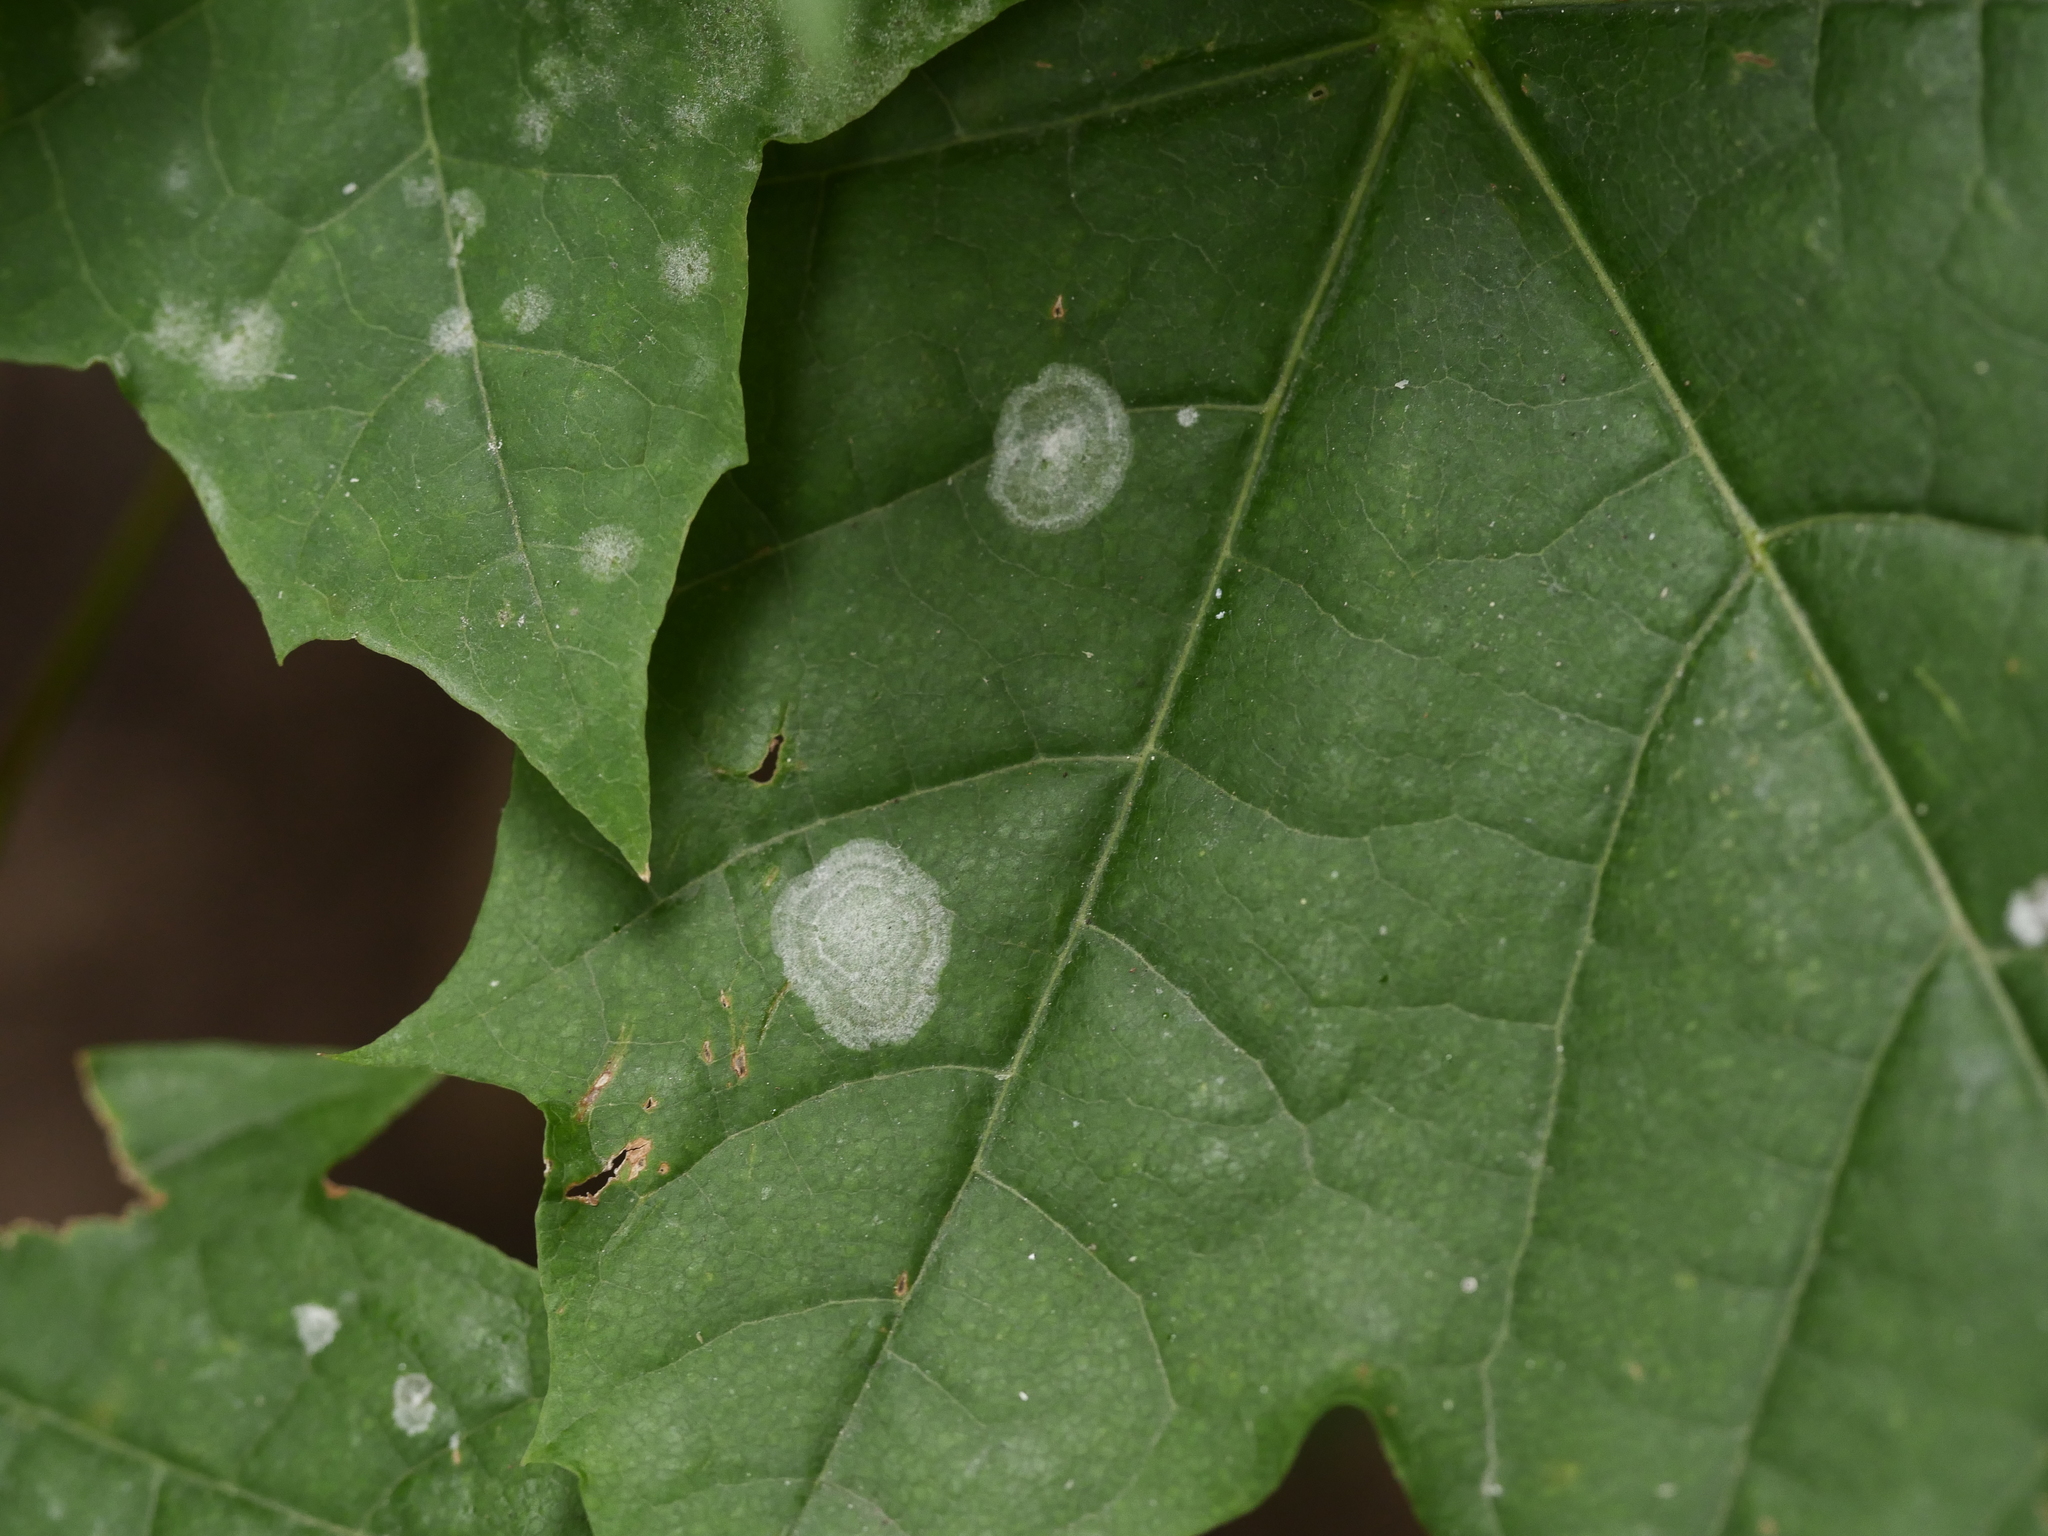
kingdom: Fungi
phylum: Ascomycota
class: Leotiomycetes
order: Helotiales
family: Erysiphaceae
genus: Sawadaea
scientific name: Sawadaea tulasnei
